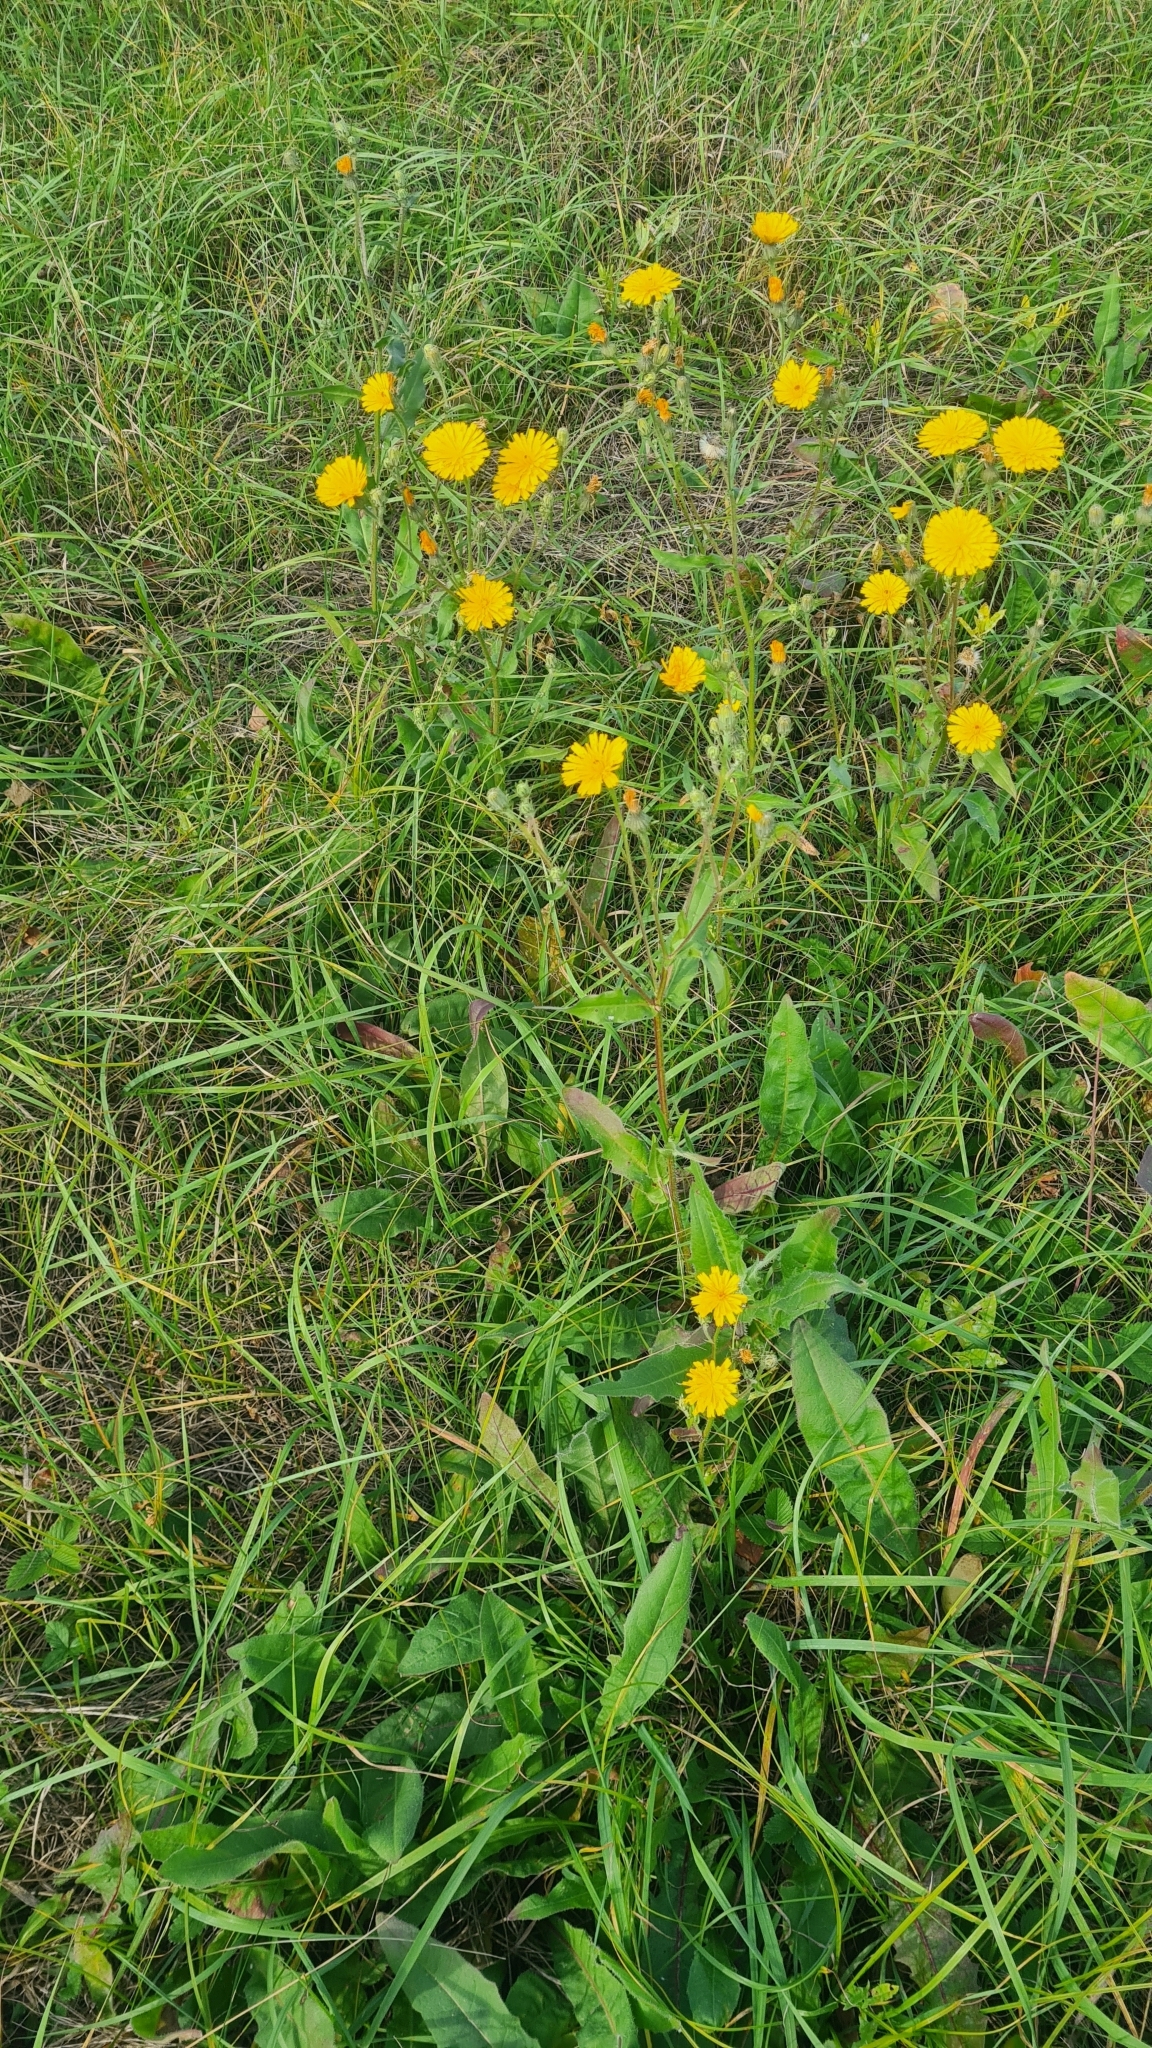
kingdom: Plantae
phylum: Tracheophyta
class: Magnoliopsida
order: Asterales
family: Asteraceae
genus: Picris
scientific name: Picris hieracioides
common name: Hawkweed oxtongue
